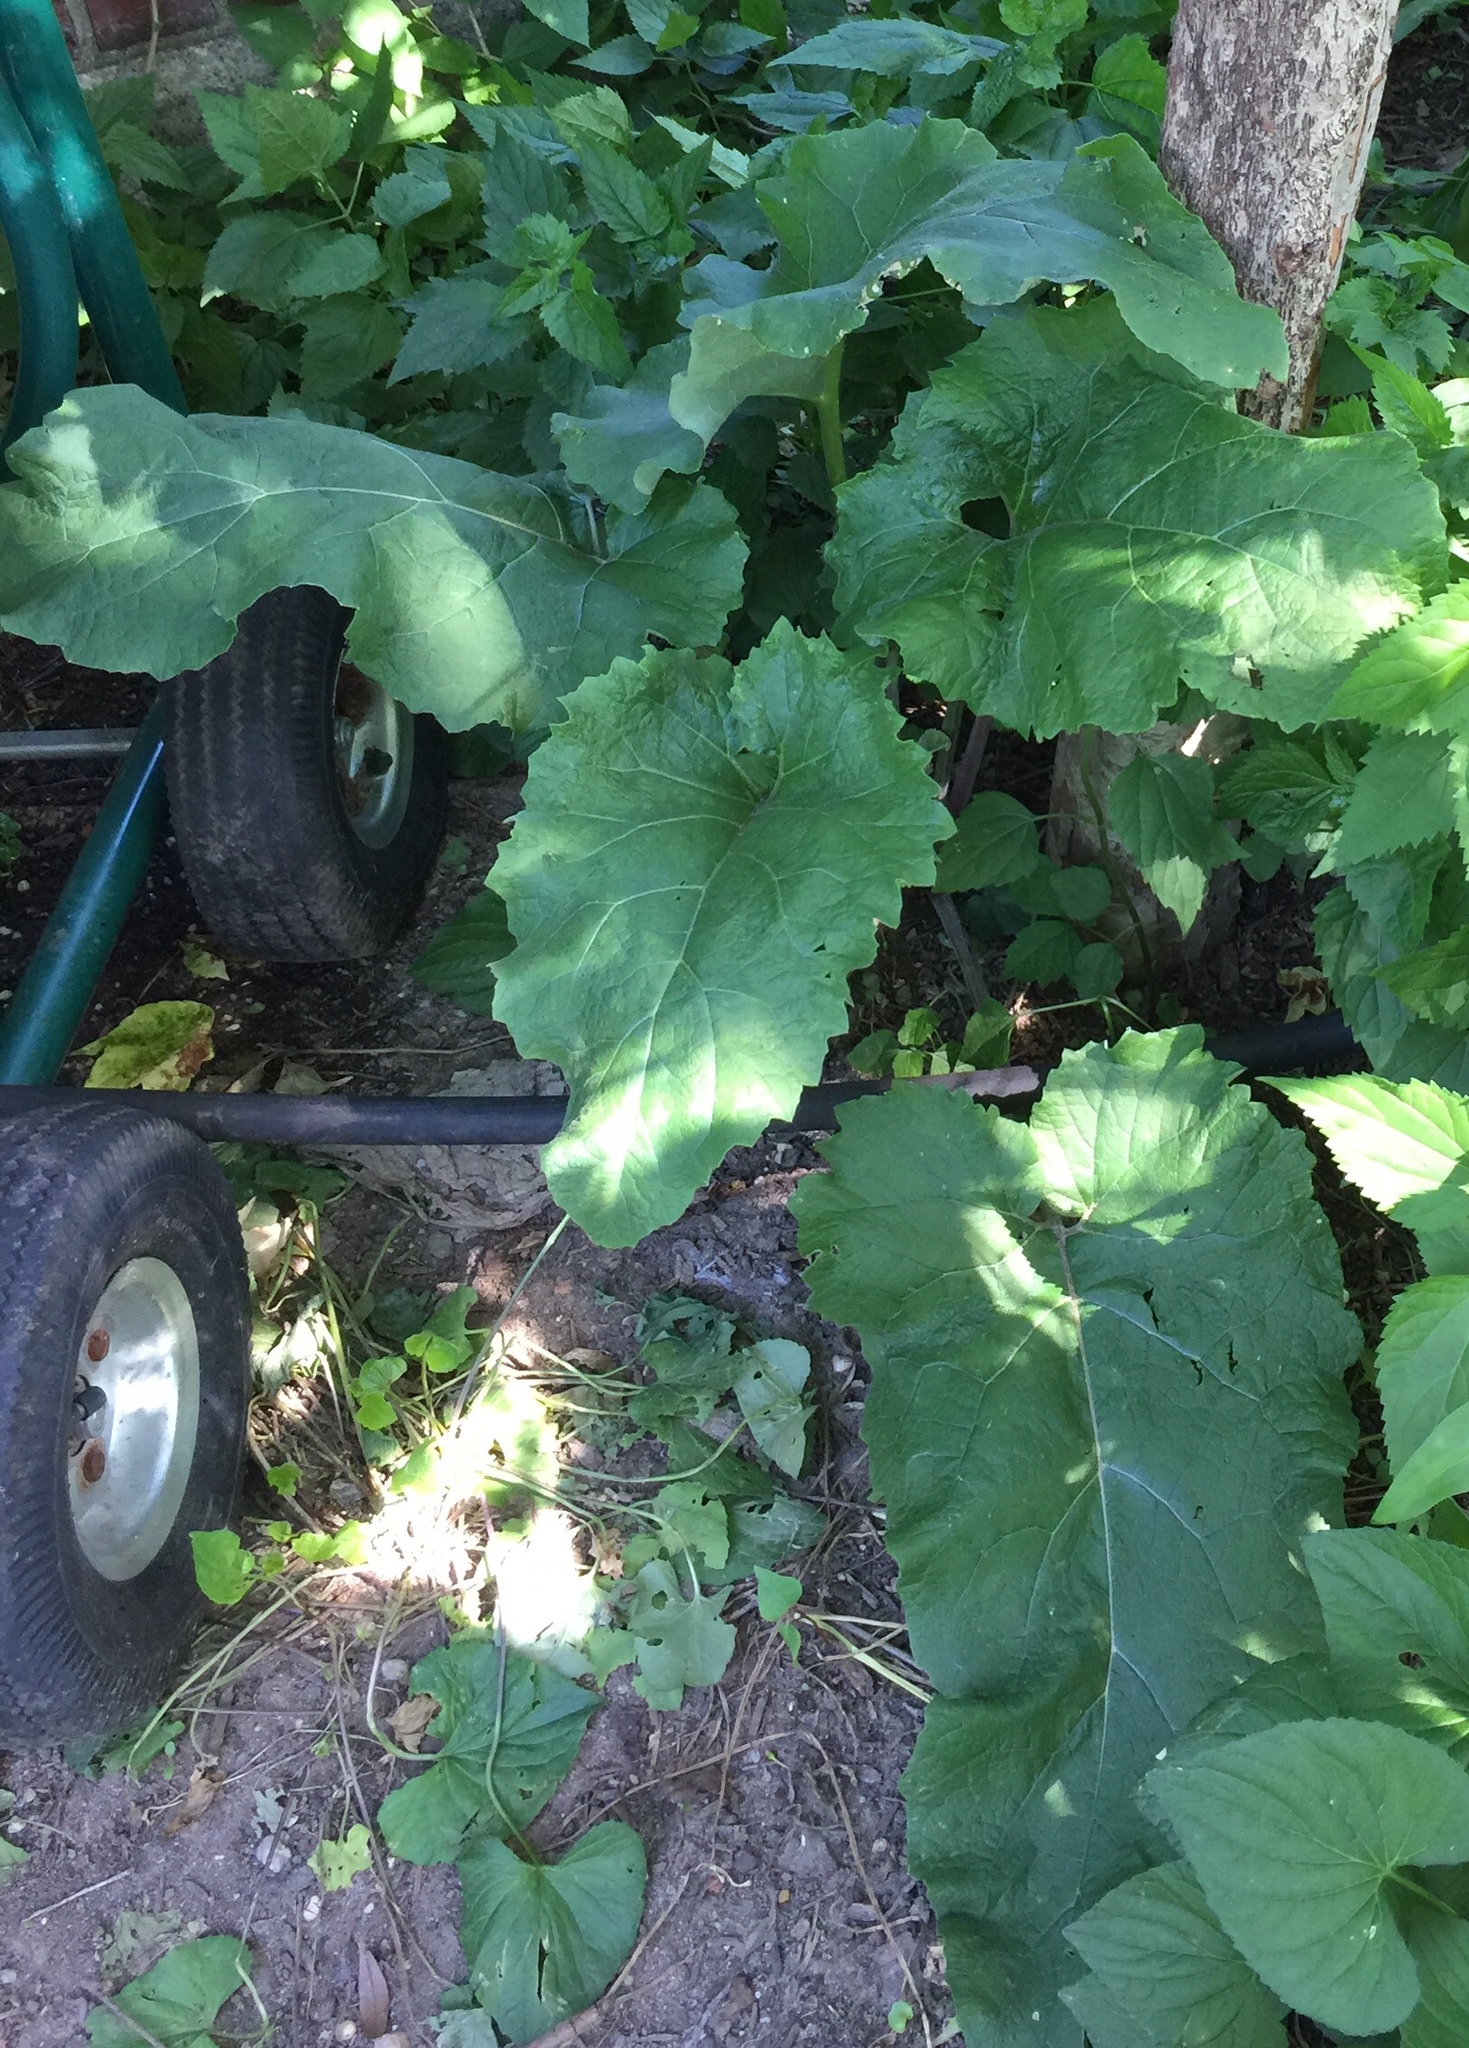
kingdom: Plantae
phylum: Tracheophyta
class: Magnoliopsida
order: Asterales
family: Asteraceae
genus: Arctium
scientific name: Arctium
